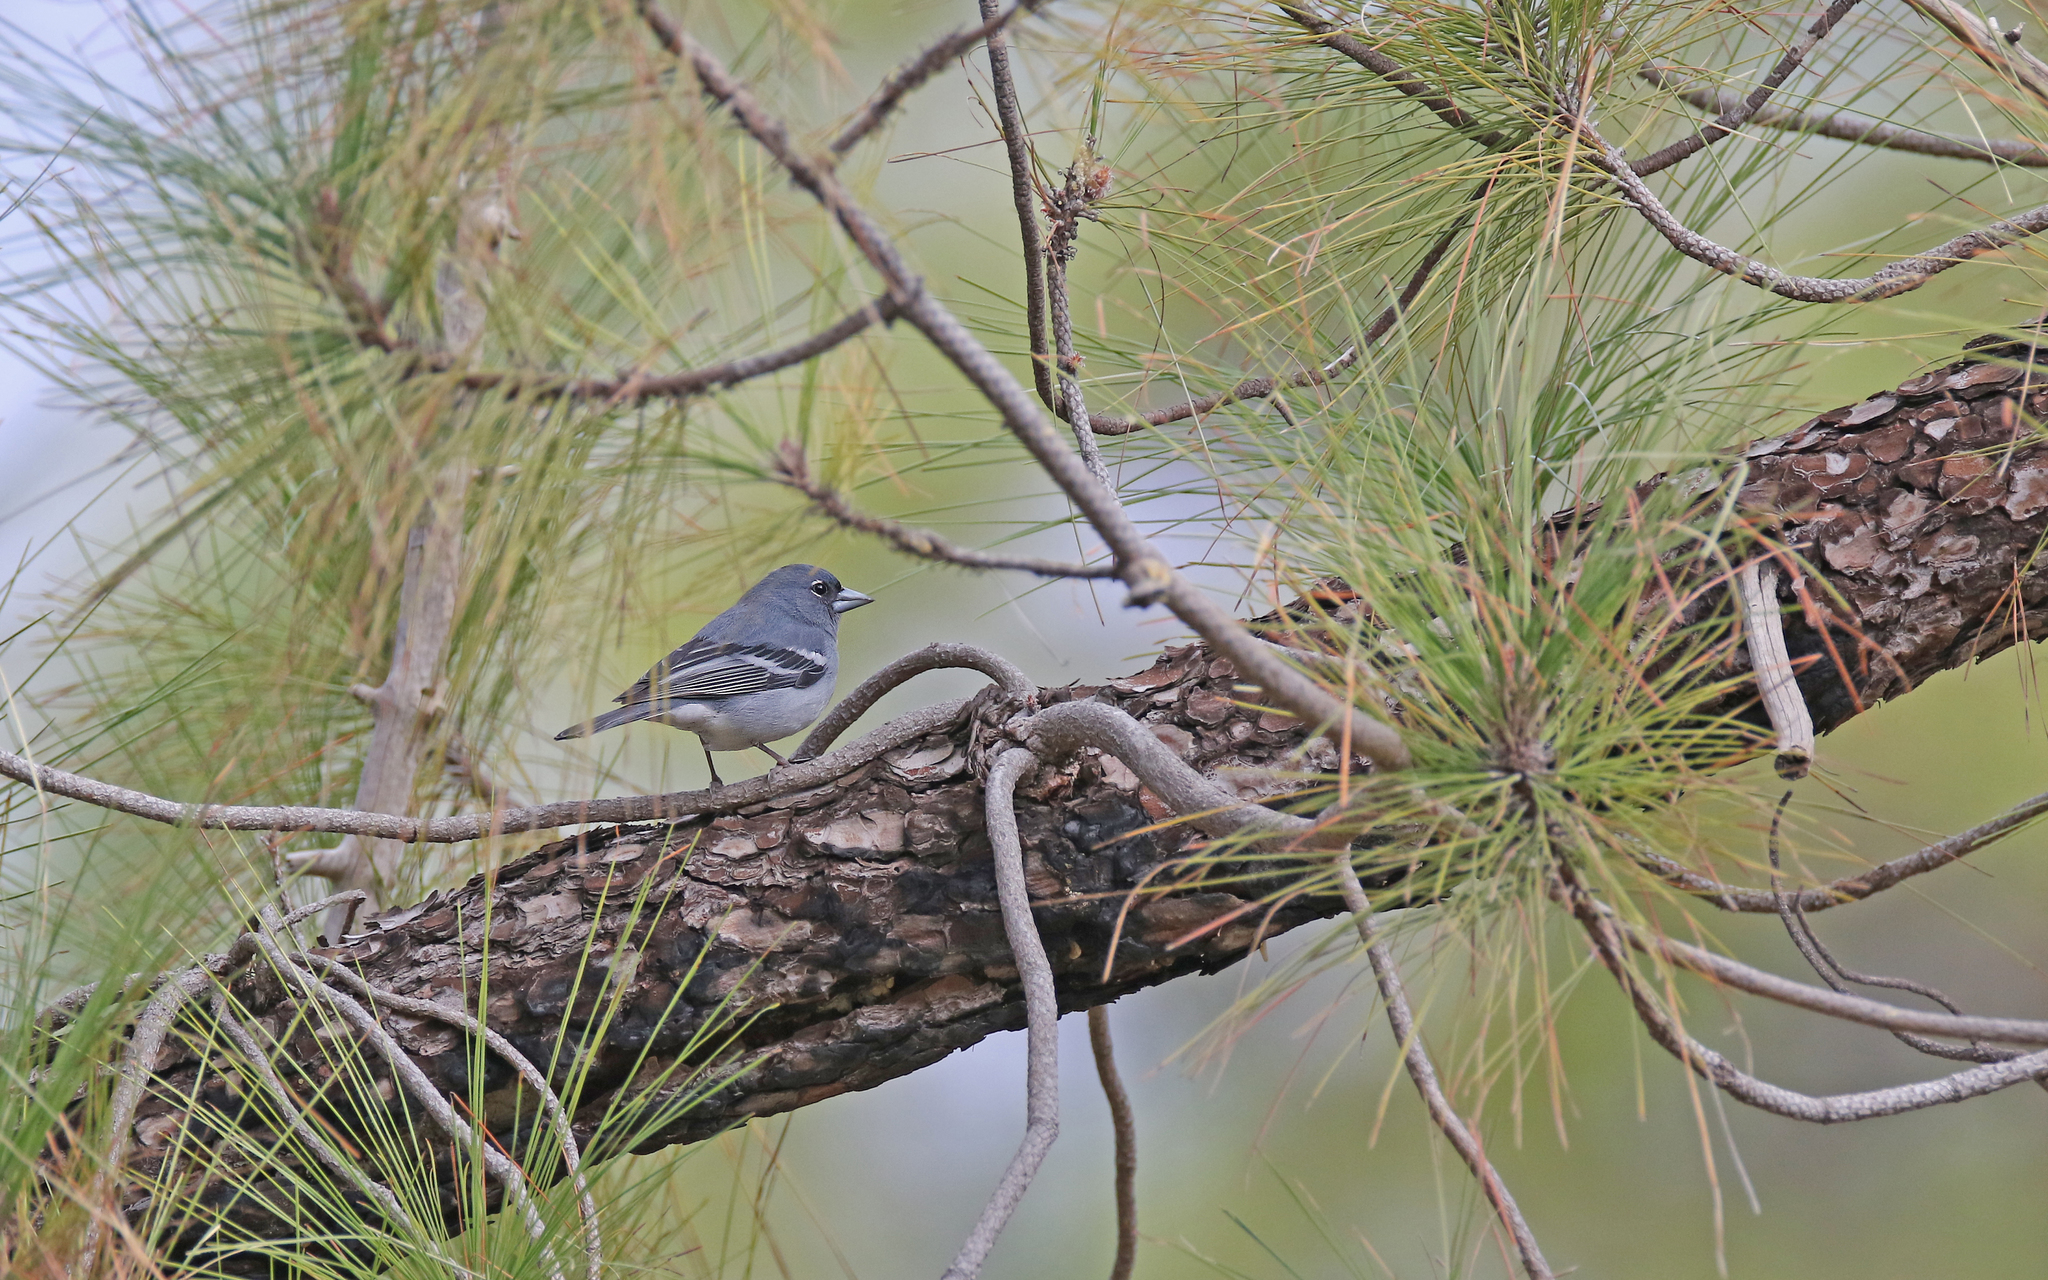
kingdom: Animalia
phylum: Chordata
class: Aves
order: Passeriformes
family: Fringillidae
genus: Fringilla
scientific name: Fringilla polatzeki
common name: Gran canaria blue chaffinch
